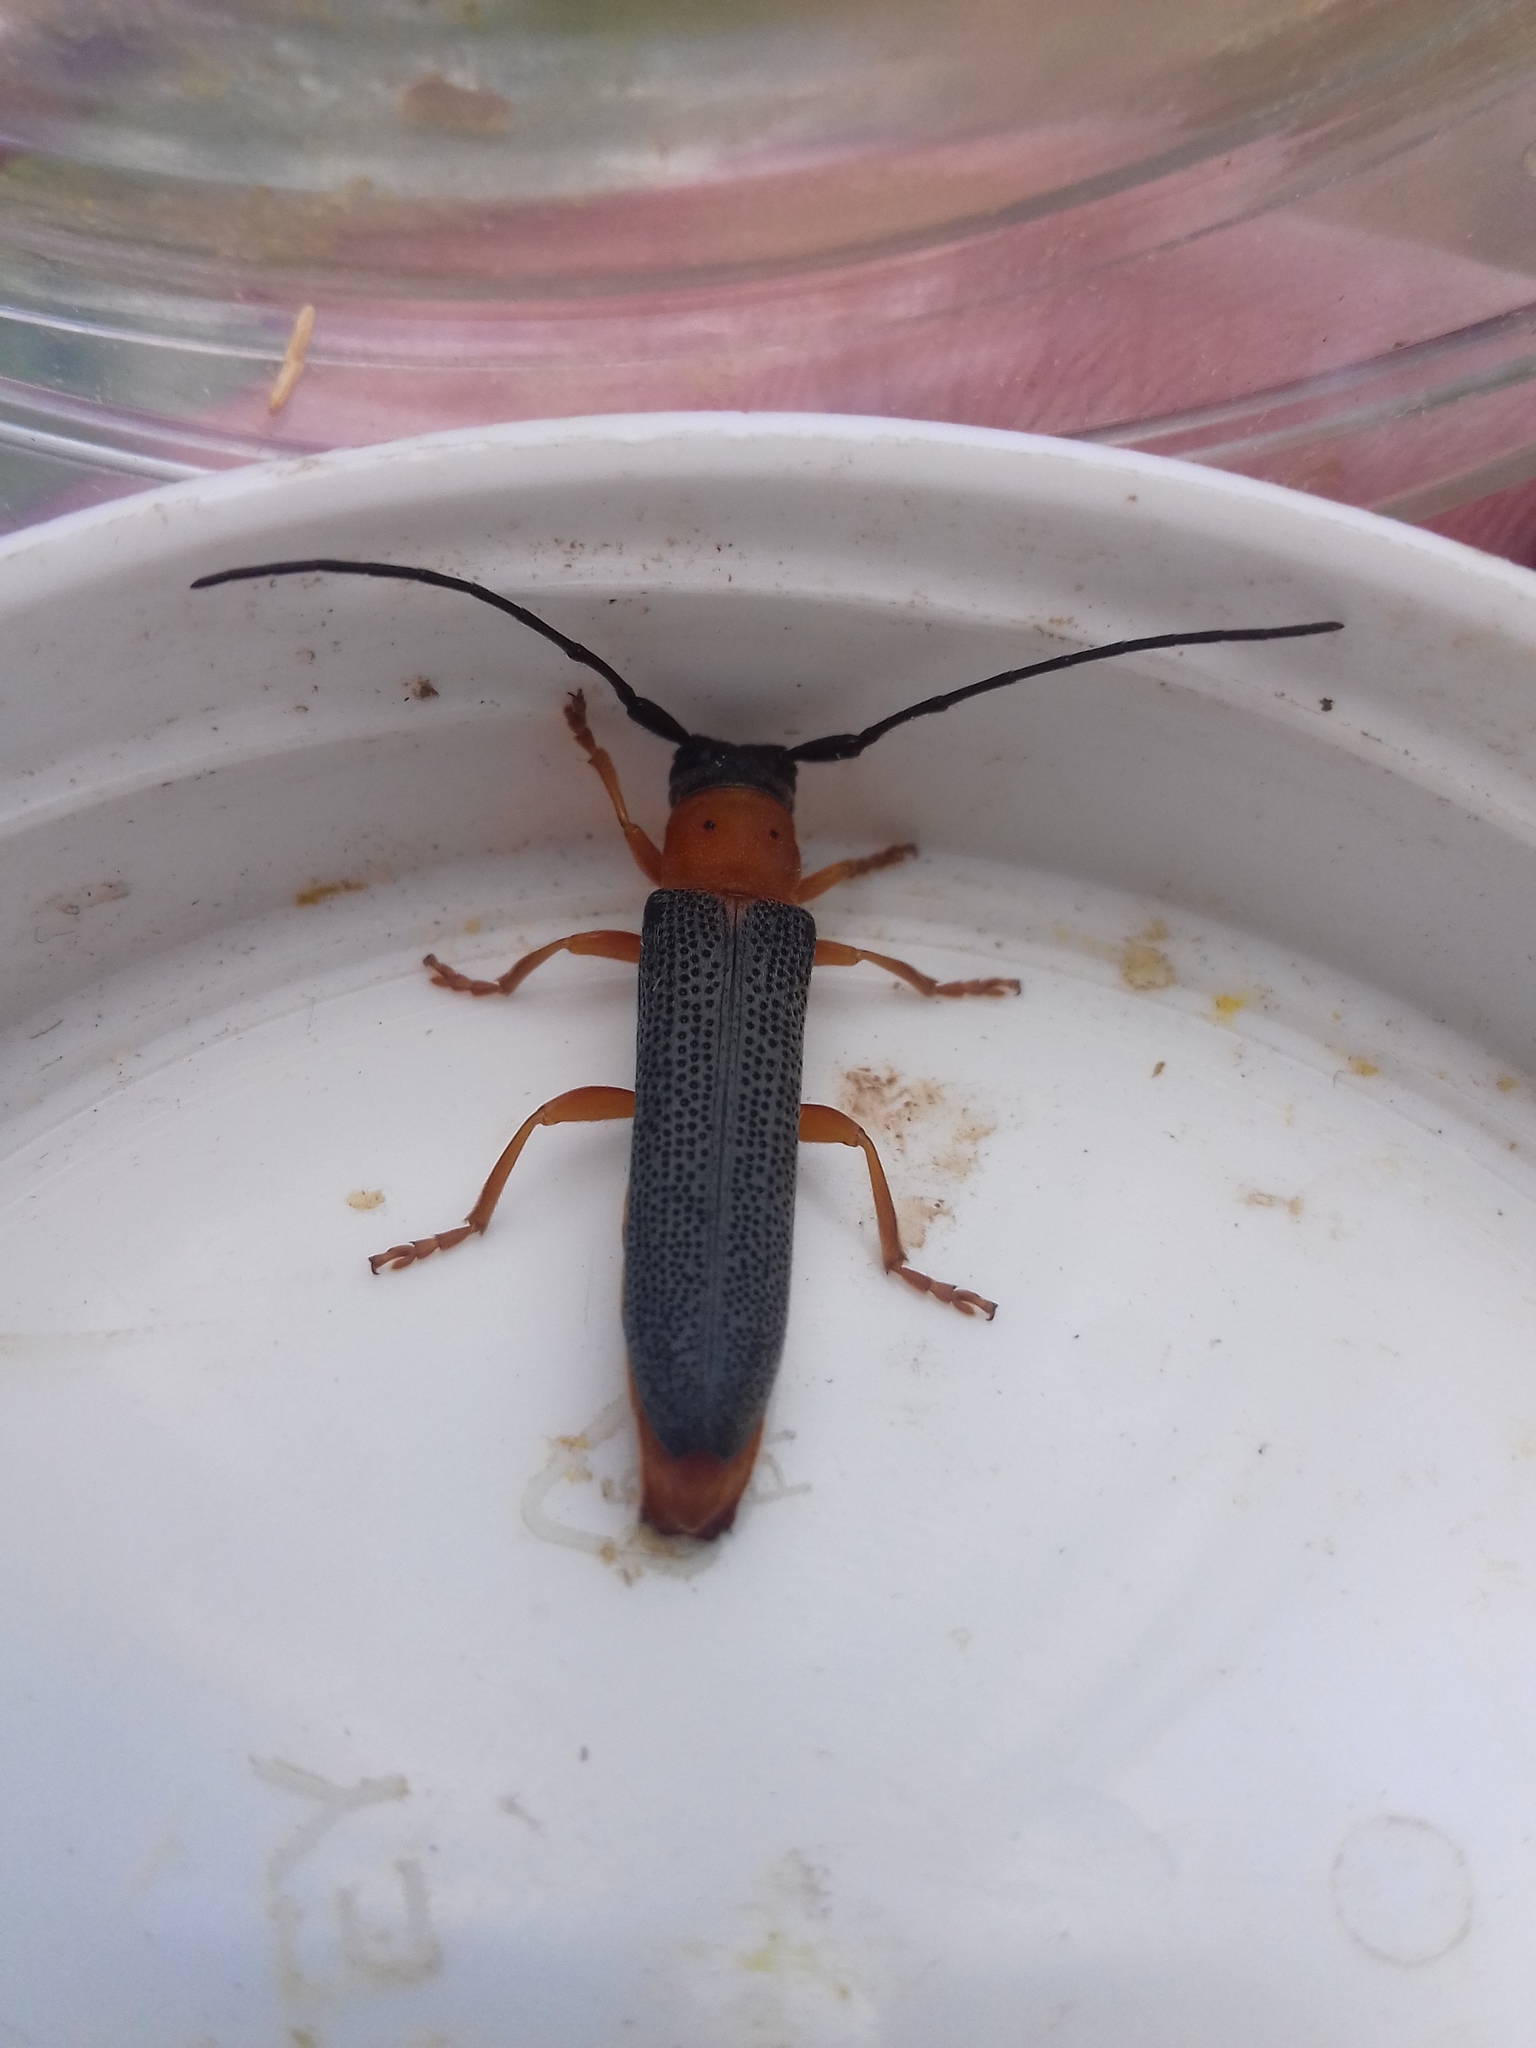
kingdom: Animalia
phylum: Arthropoda
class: Insecta
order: Coleoptera
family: Cerambycidae
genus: Oberea
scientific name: Oberea oculata
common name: Eyed longhorn beetle
